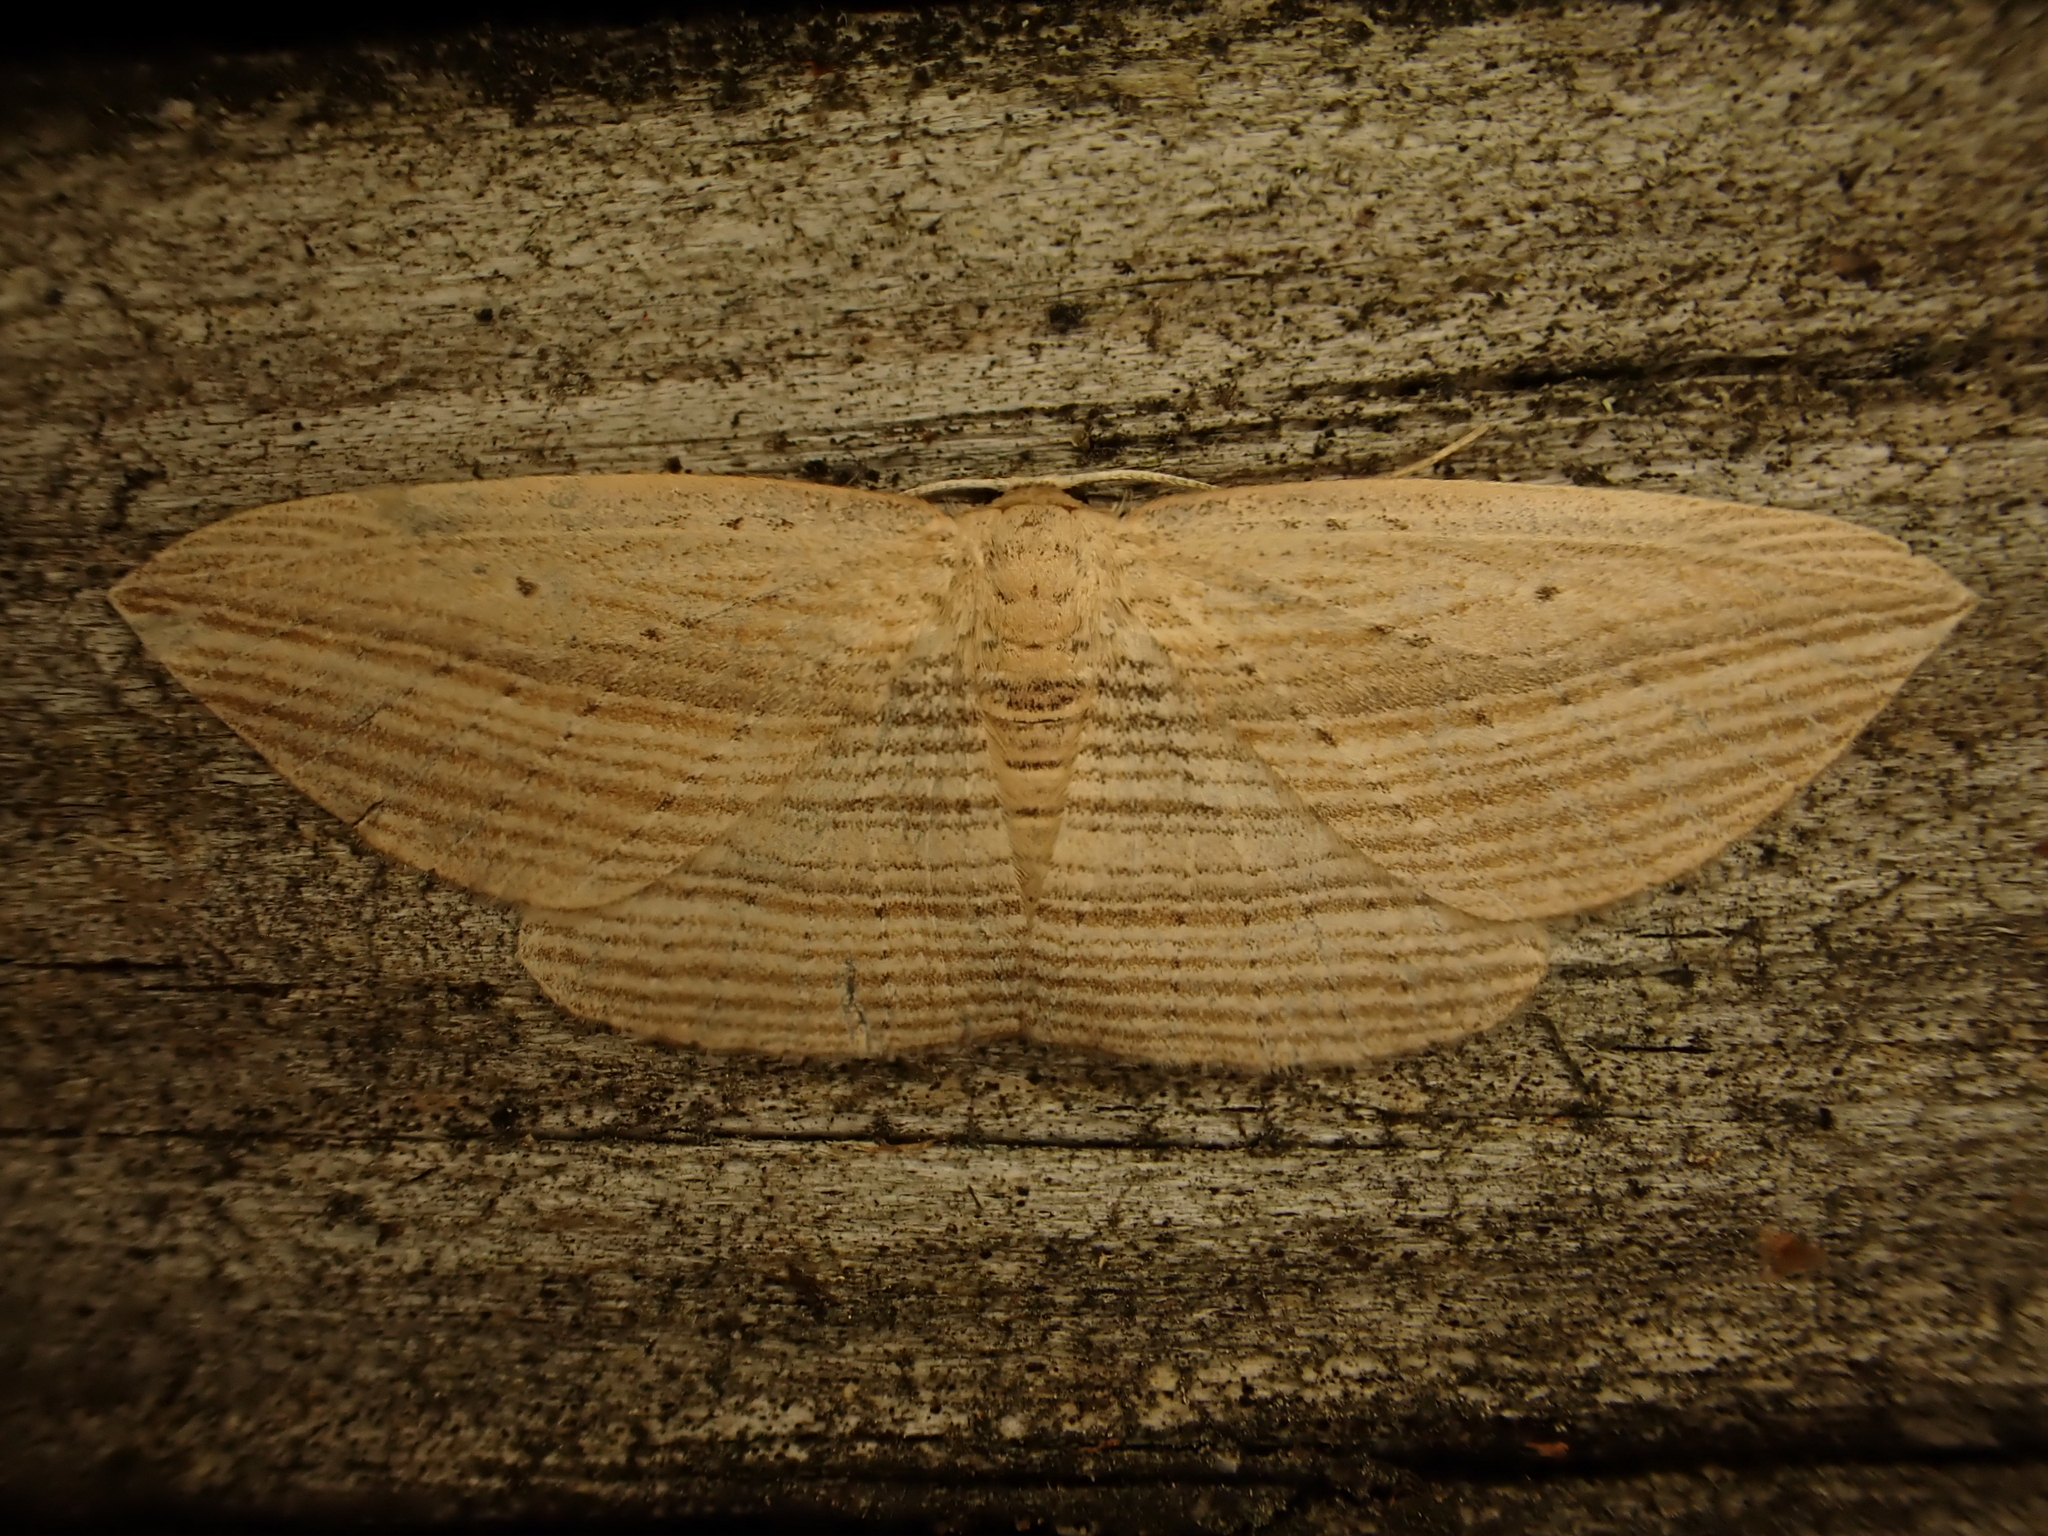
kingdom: Animalia
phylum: Arthropoda
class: Insecta
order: Lepidoptera
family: Geometridae
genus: Epiphryne
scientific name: Epiphryne verriculata
